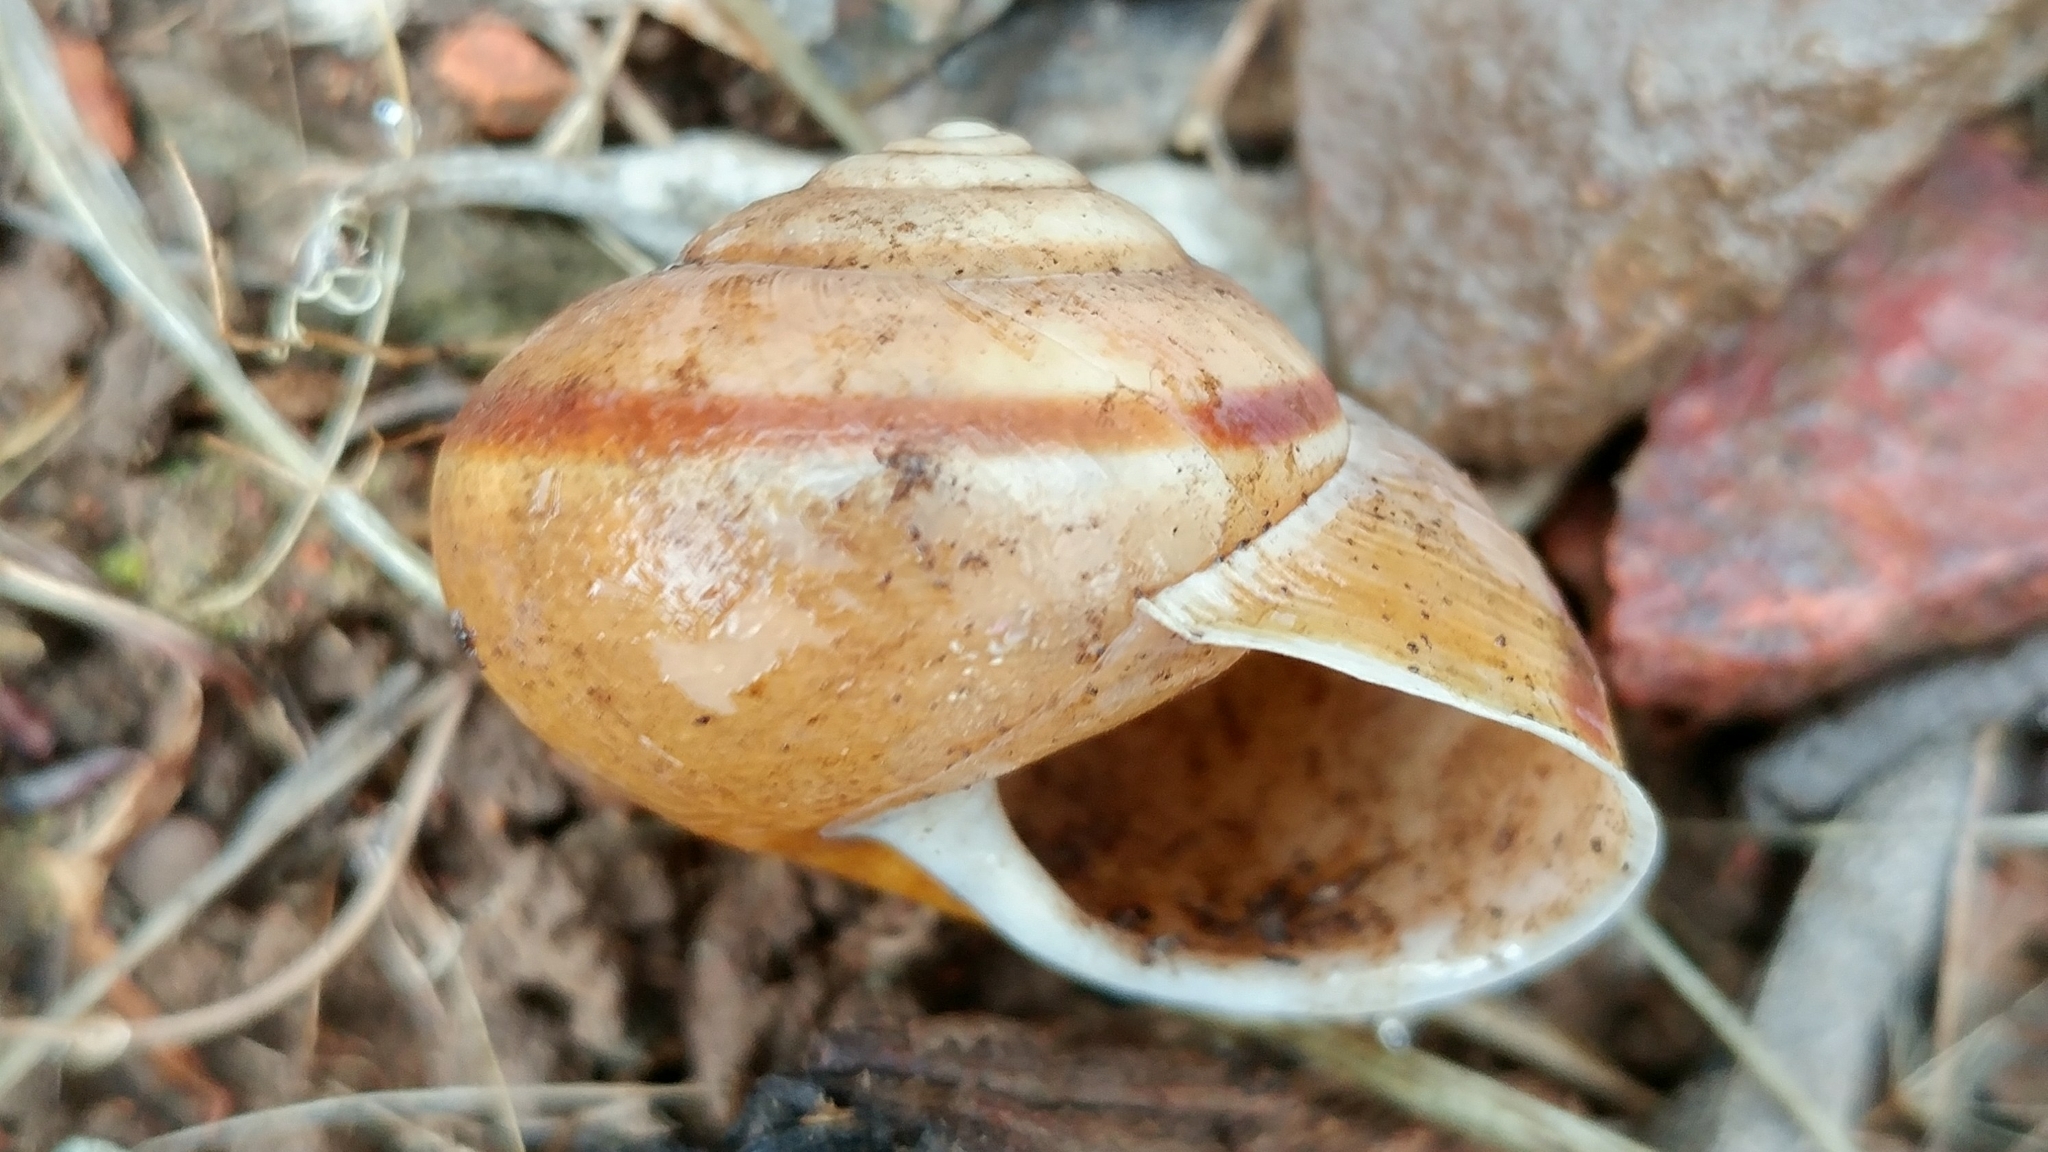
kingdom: Animalia
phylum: Mollusca
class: Gastropoda
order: Stylommatophora
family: Xanthonychidae
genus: Helminthoglypta
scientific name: Helminthoglypta tudiculata
